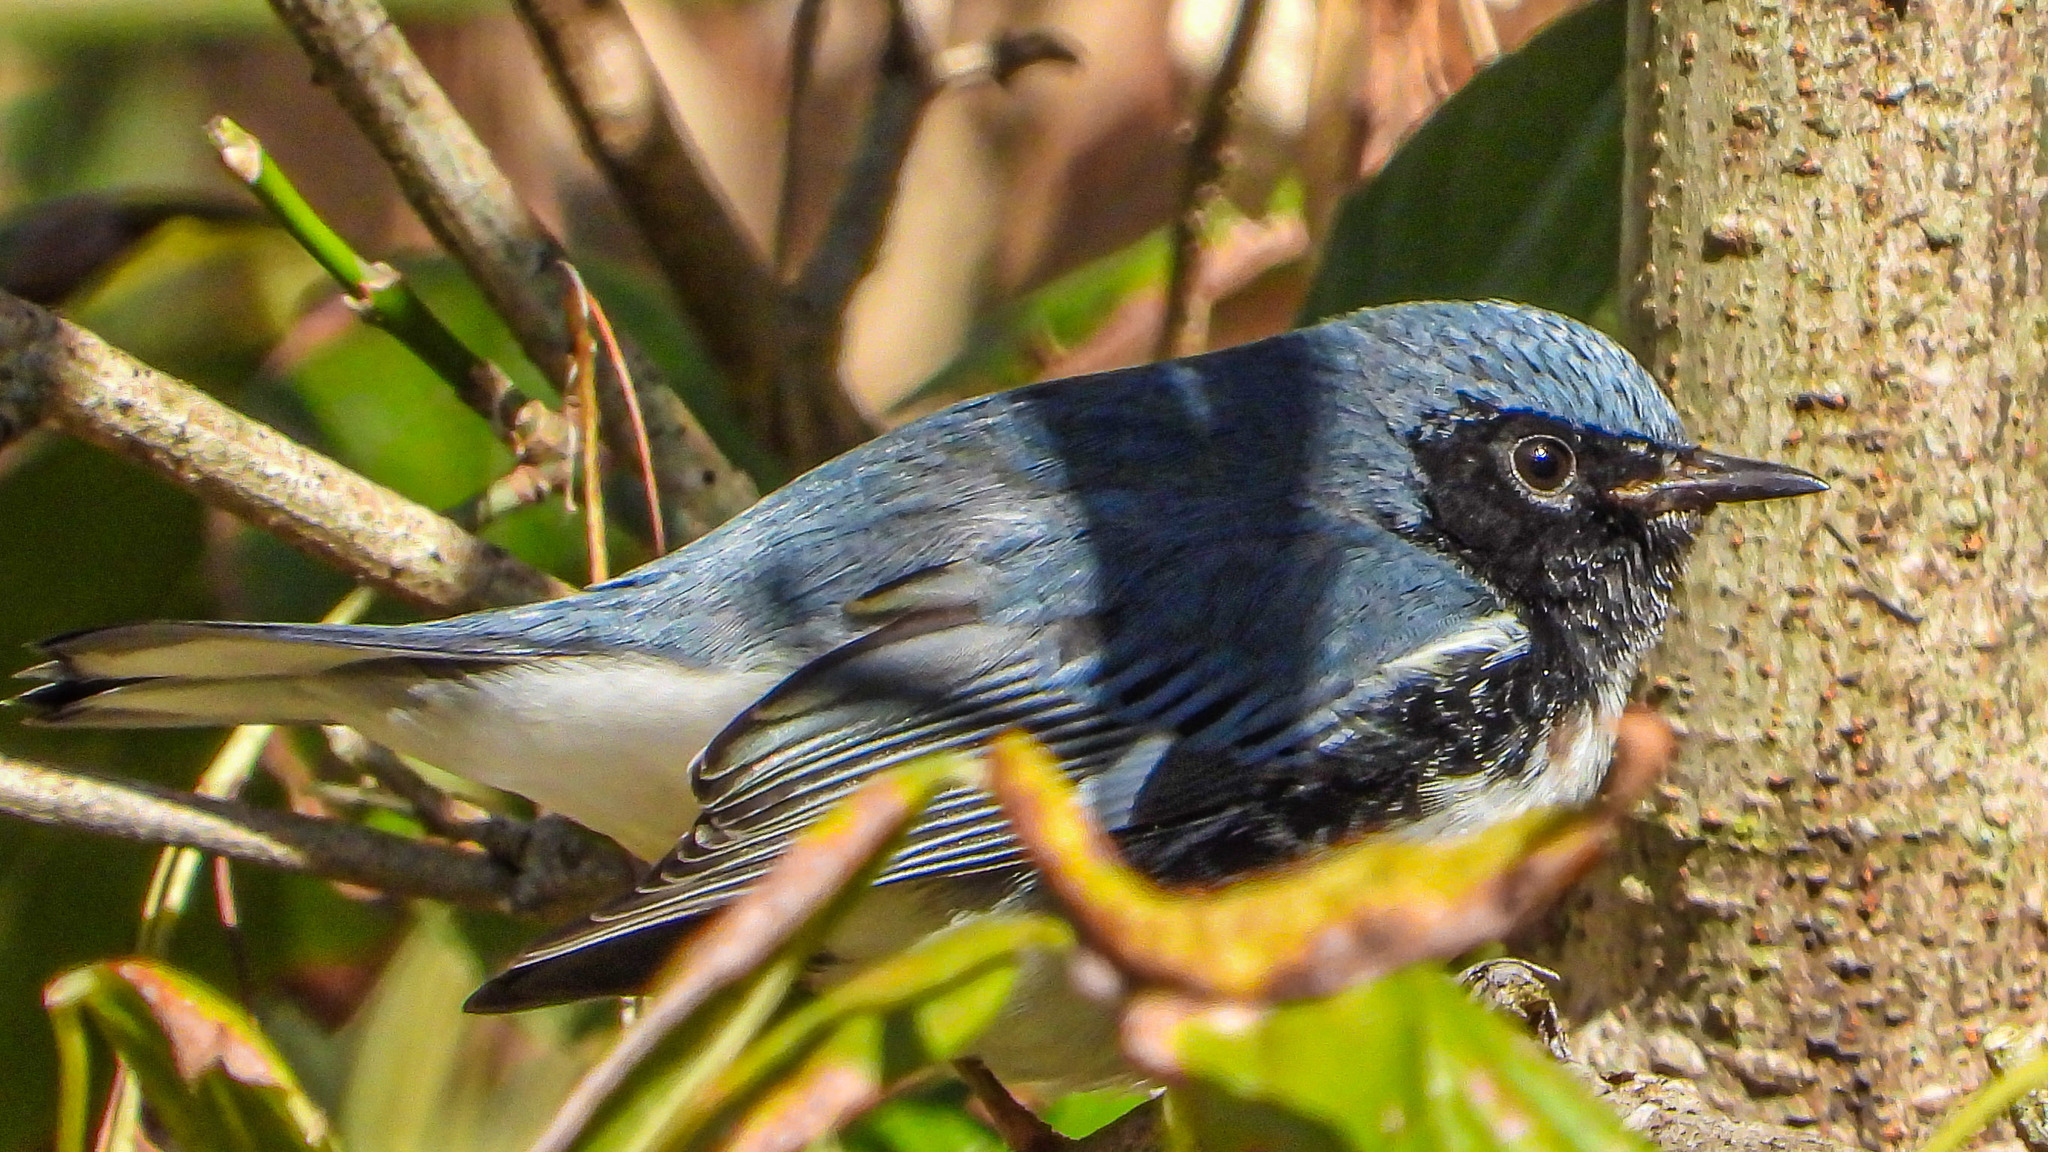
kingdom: Animalia
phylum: Chordata
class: Aves
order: Passeriformes
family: Parulidae
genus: Setophaga
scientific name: Setophaga caerulescens
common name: Black-throated blue warbler
